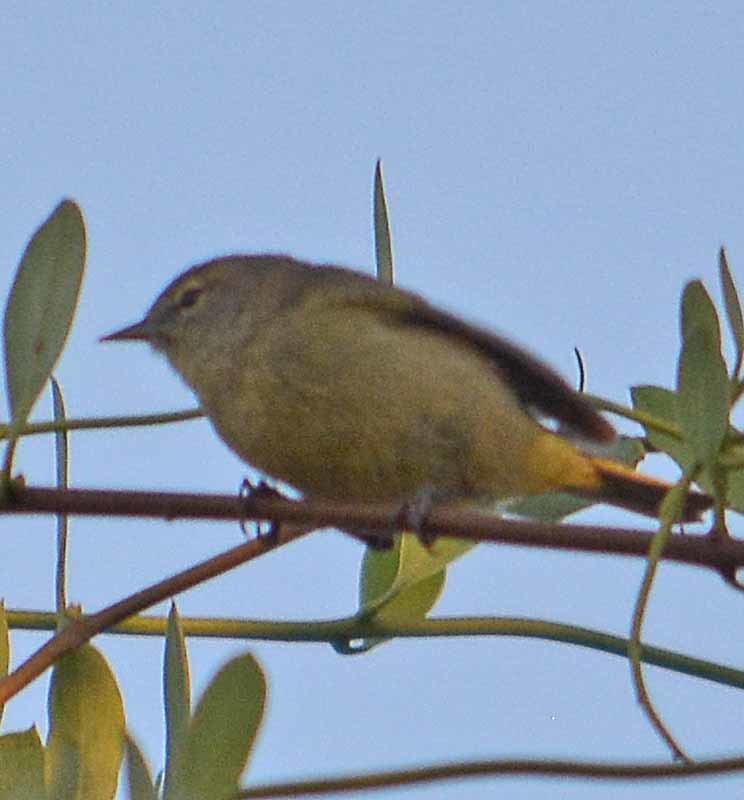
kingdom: Animalia
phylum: Chordata
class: Aves
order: Passeriformes
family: Parulidae
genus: Leiothlypis
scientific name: Leiothlypis celata
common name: Orange-crowned warbler
